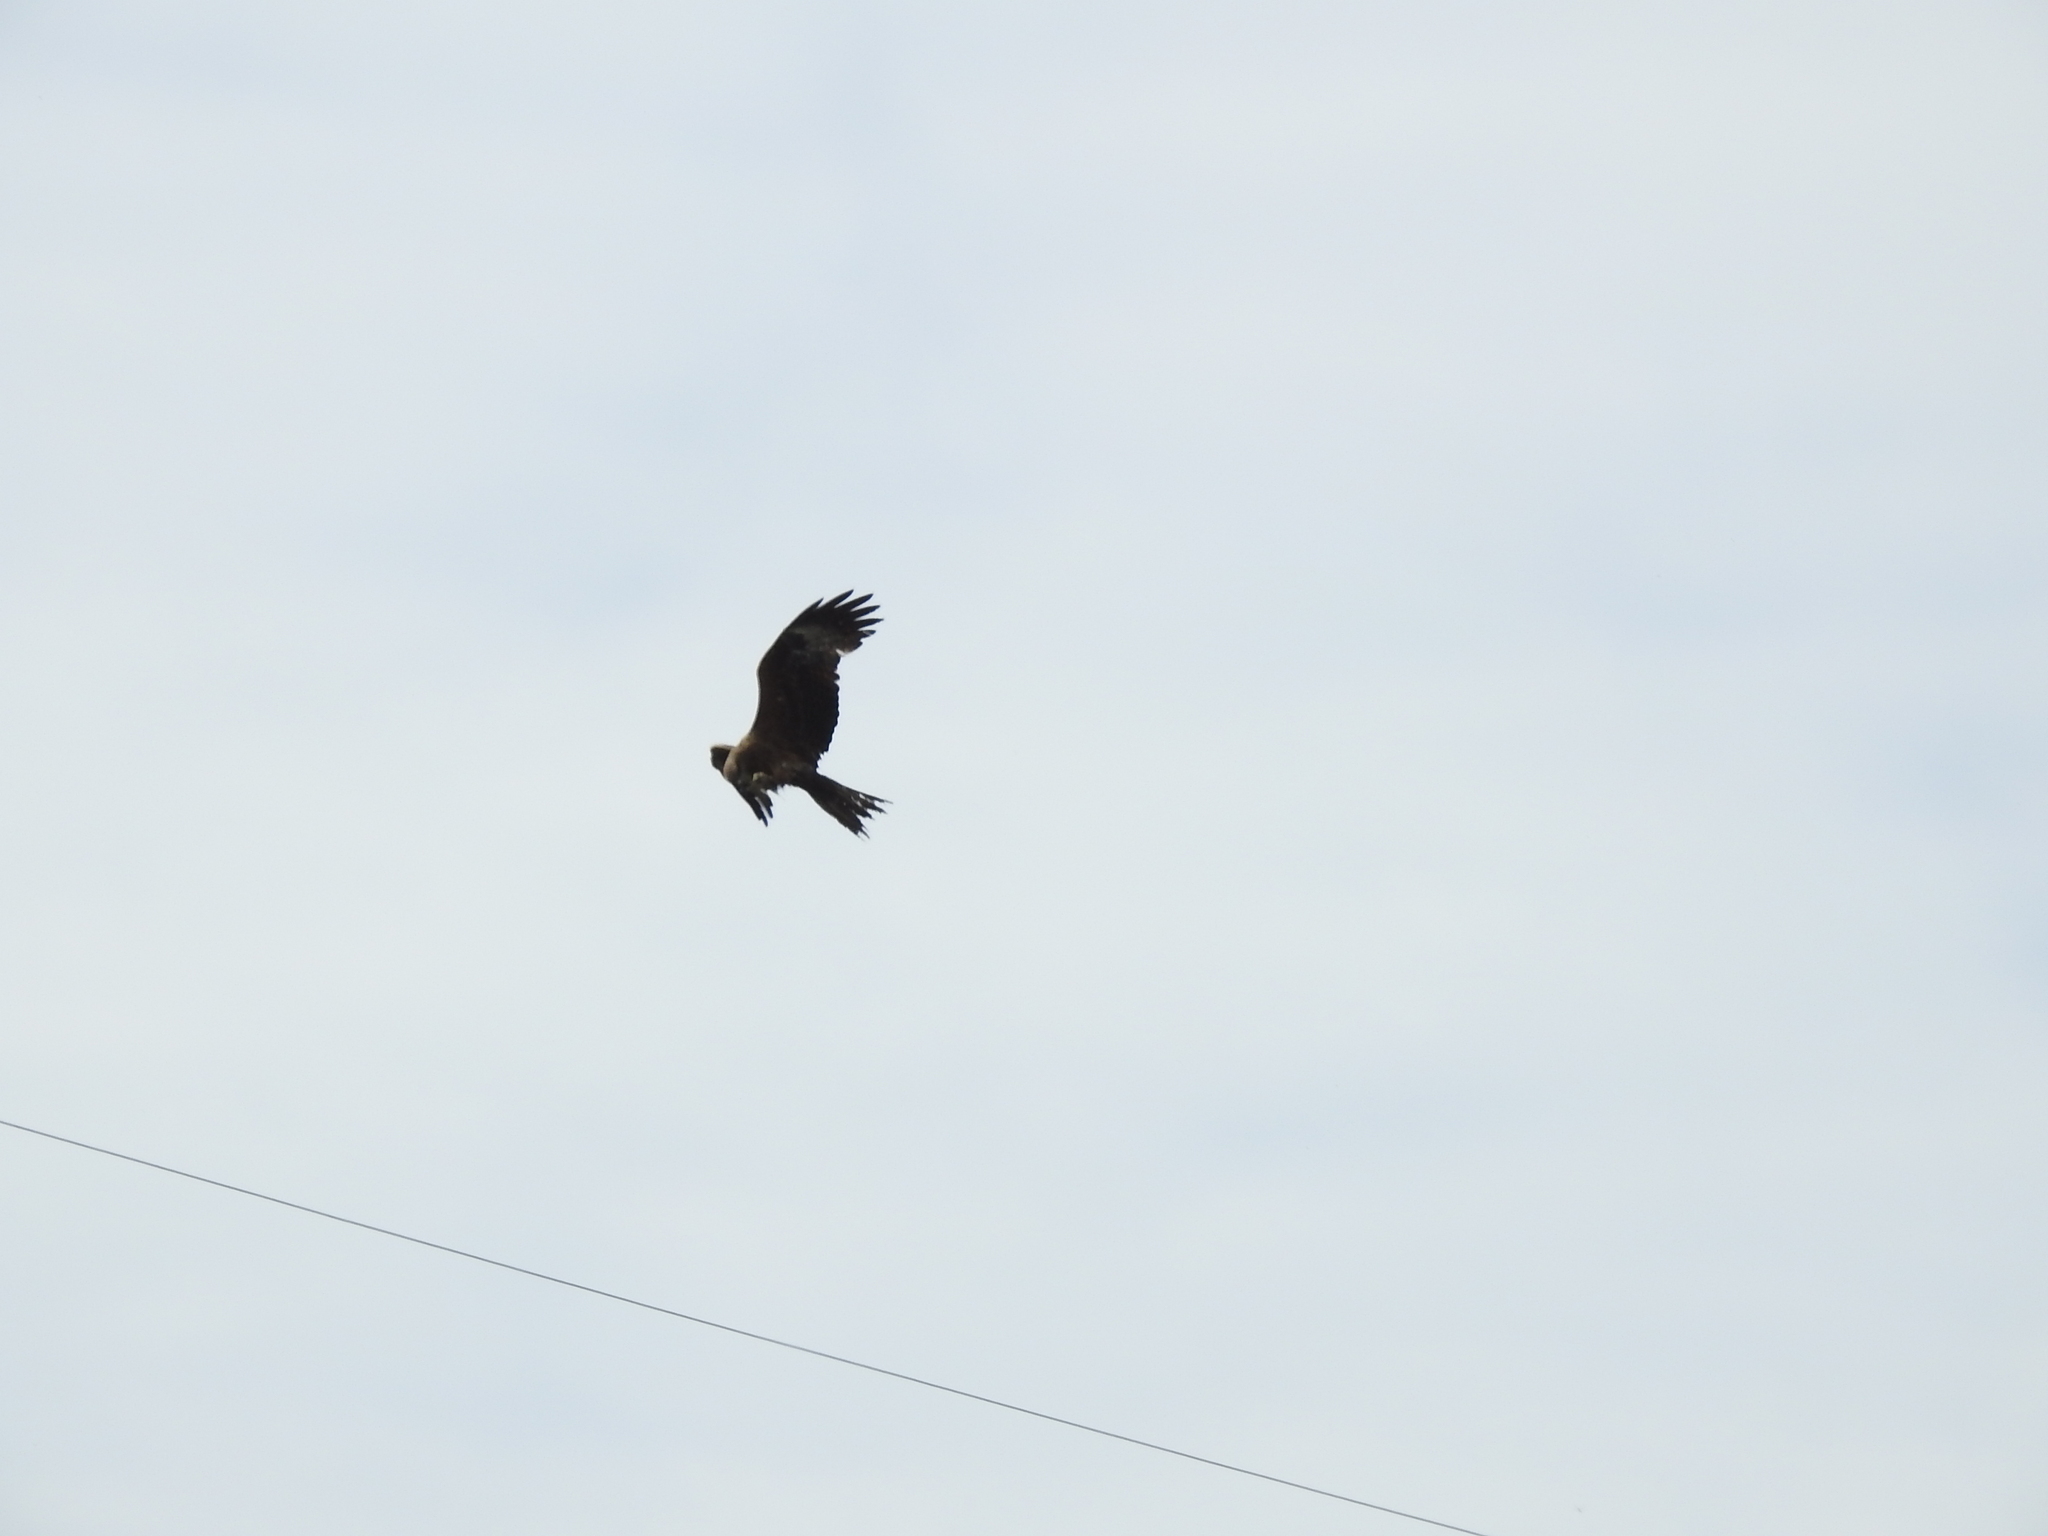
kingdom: Animalia
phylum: Chordata
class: Aves
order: Accipitriformes
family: Accipitridae
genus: Milvus
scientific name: Milvus migrans
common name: Black kite
